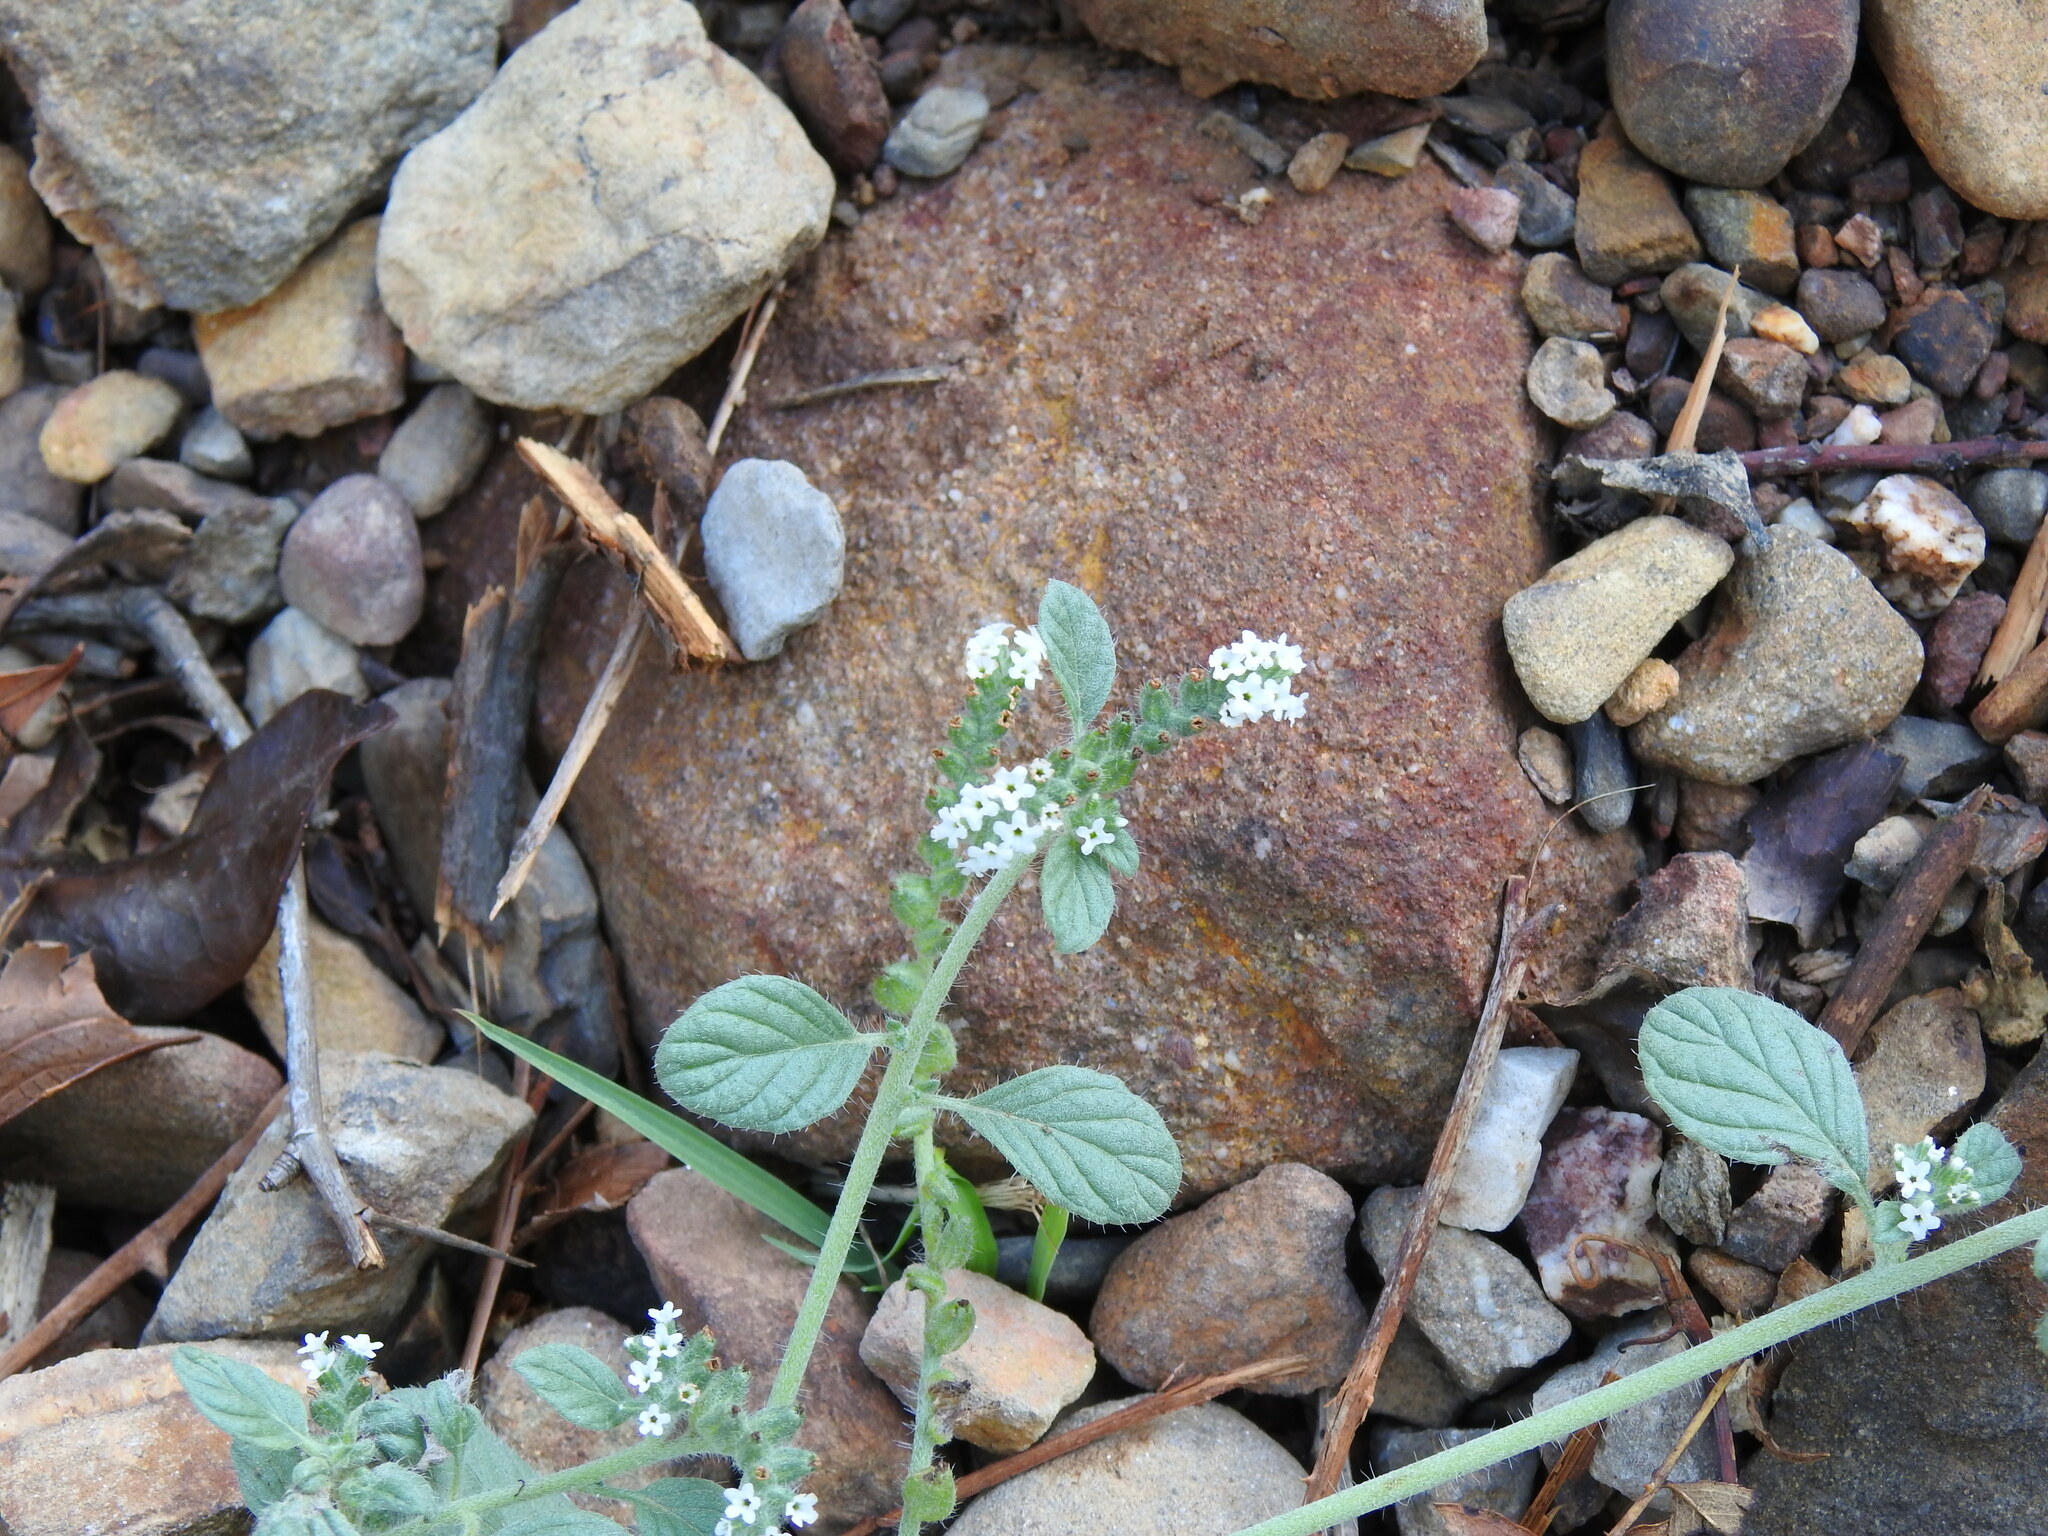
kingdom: Plantae
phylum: Tracheophyta
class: Magnoliopsida
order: Boraginales
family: Heliotropiaceae
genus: Heliotropium
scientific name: Heliotropium supinum
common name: Dwarf heliotrope
